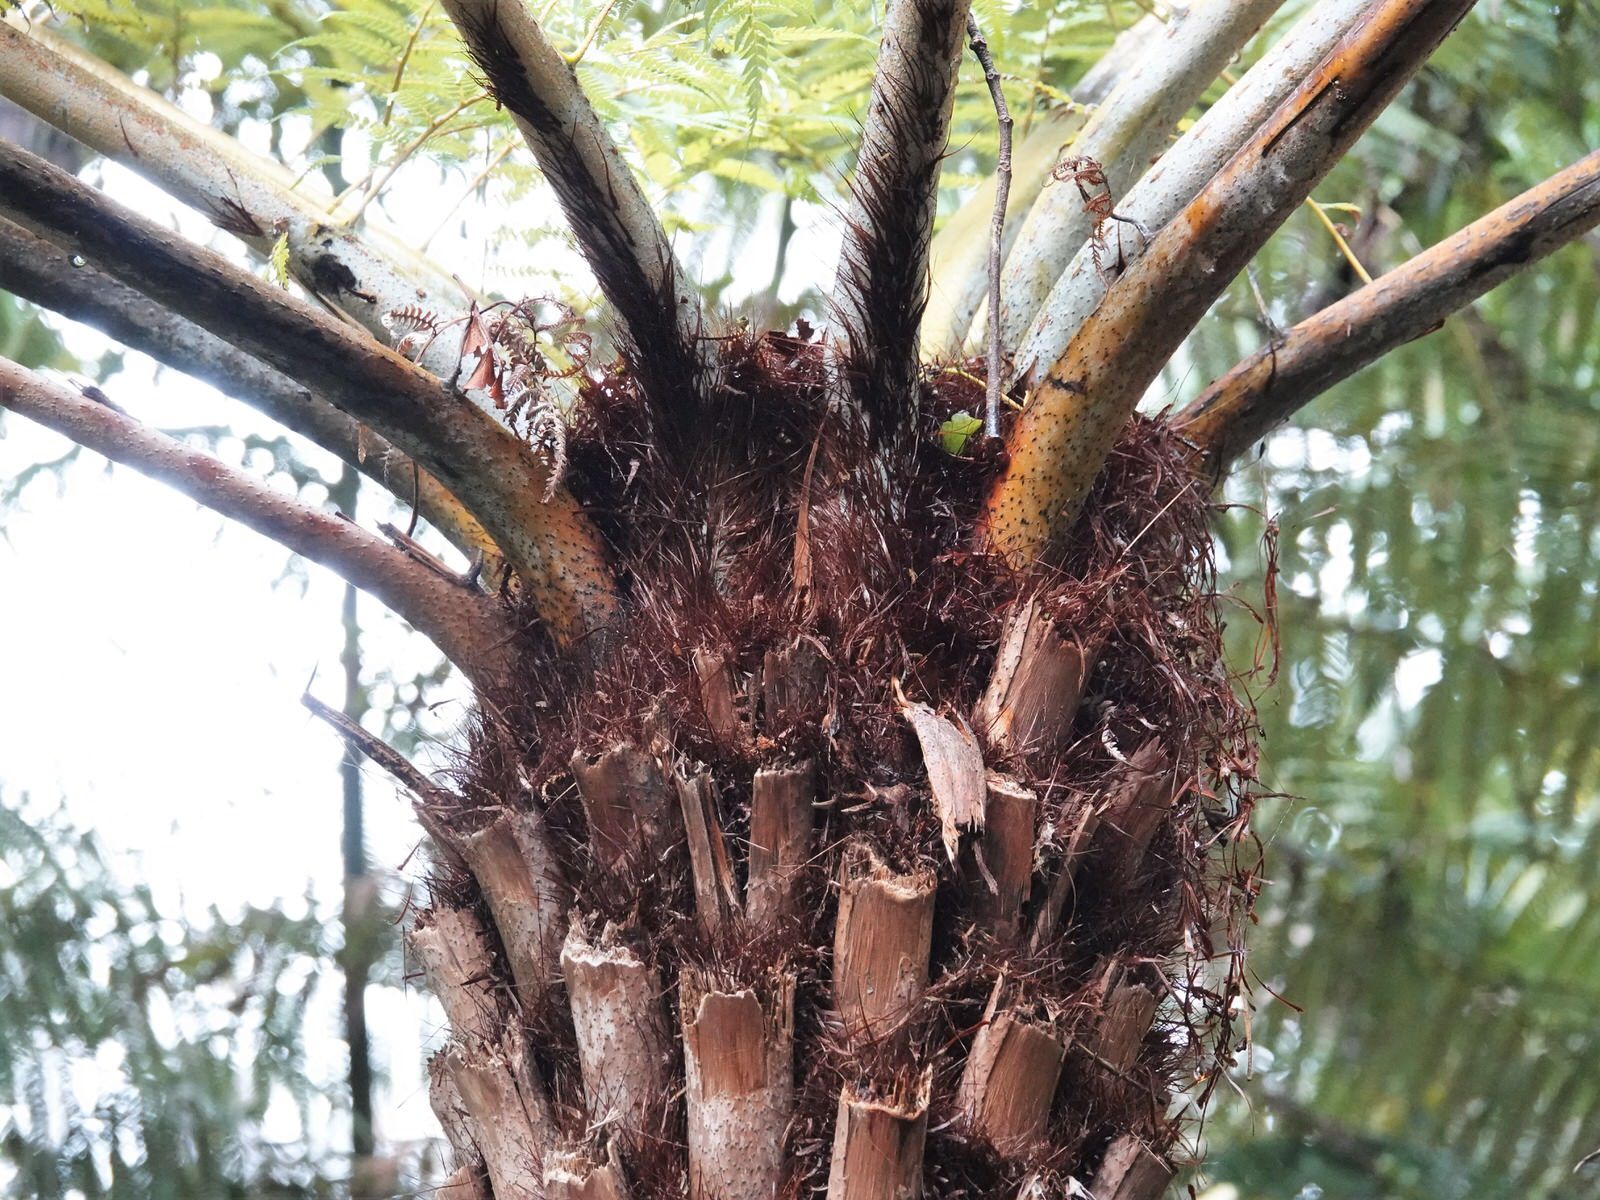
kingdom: Plantae
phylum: Tracheophyta
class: Polypodiopsida
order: Cyatheales
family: Cyatheaceae
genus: Alsophila
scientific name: Alsophila dealbata
